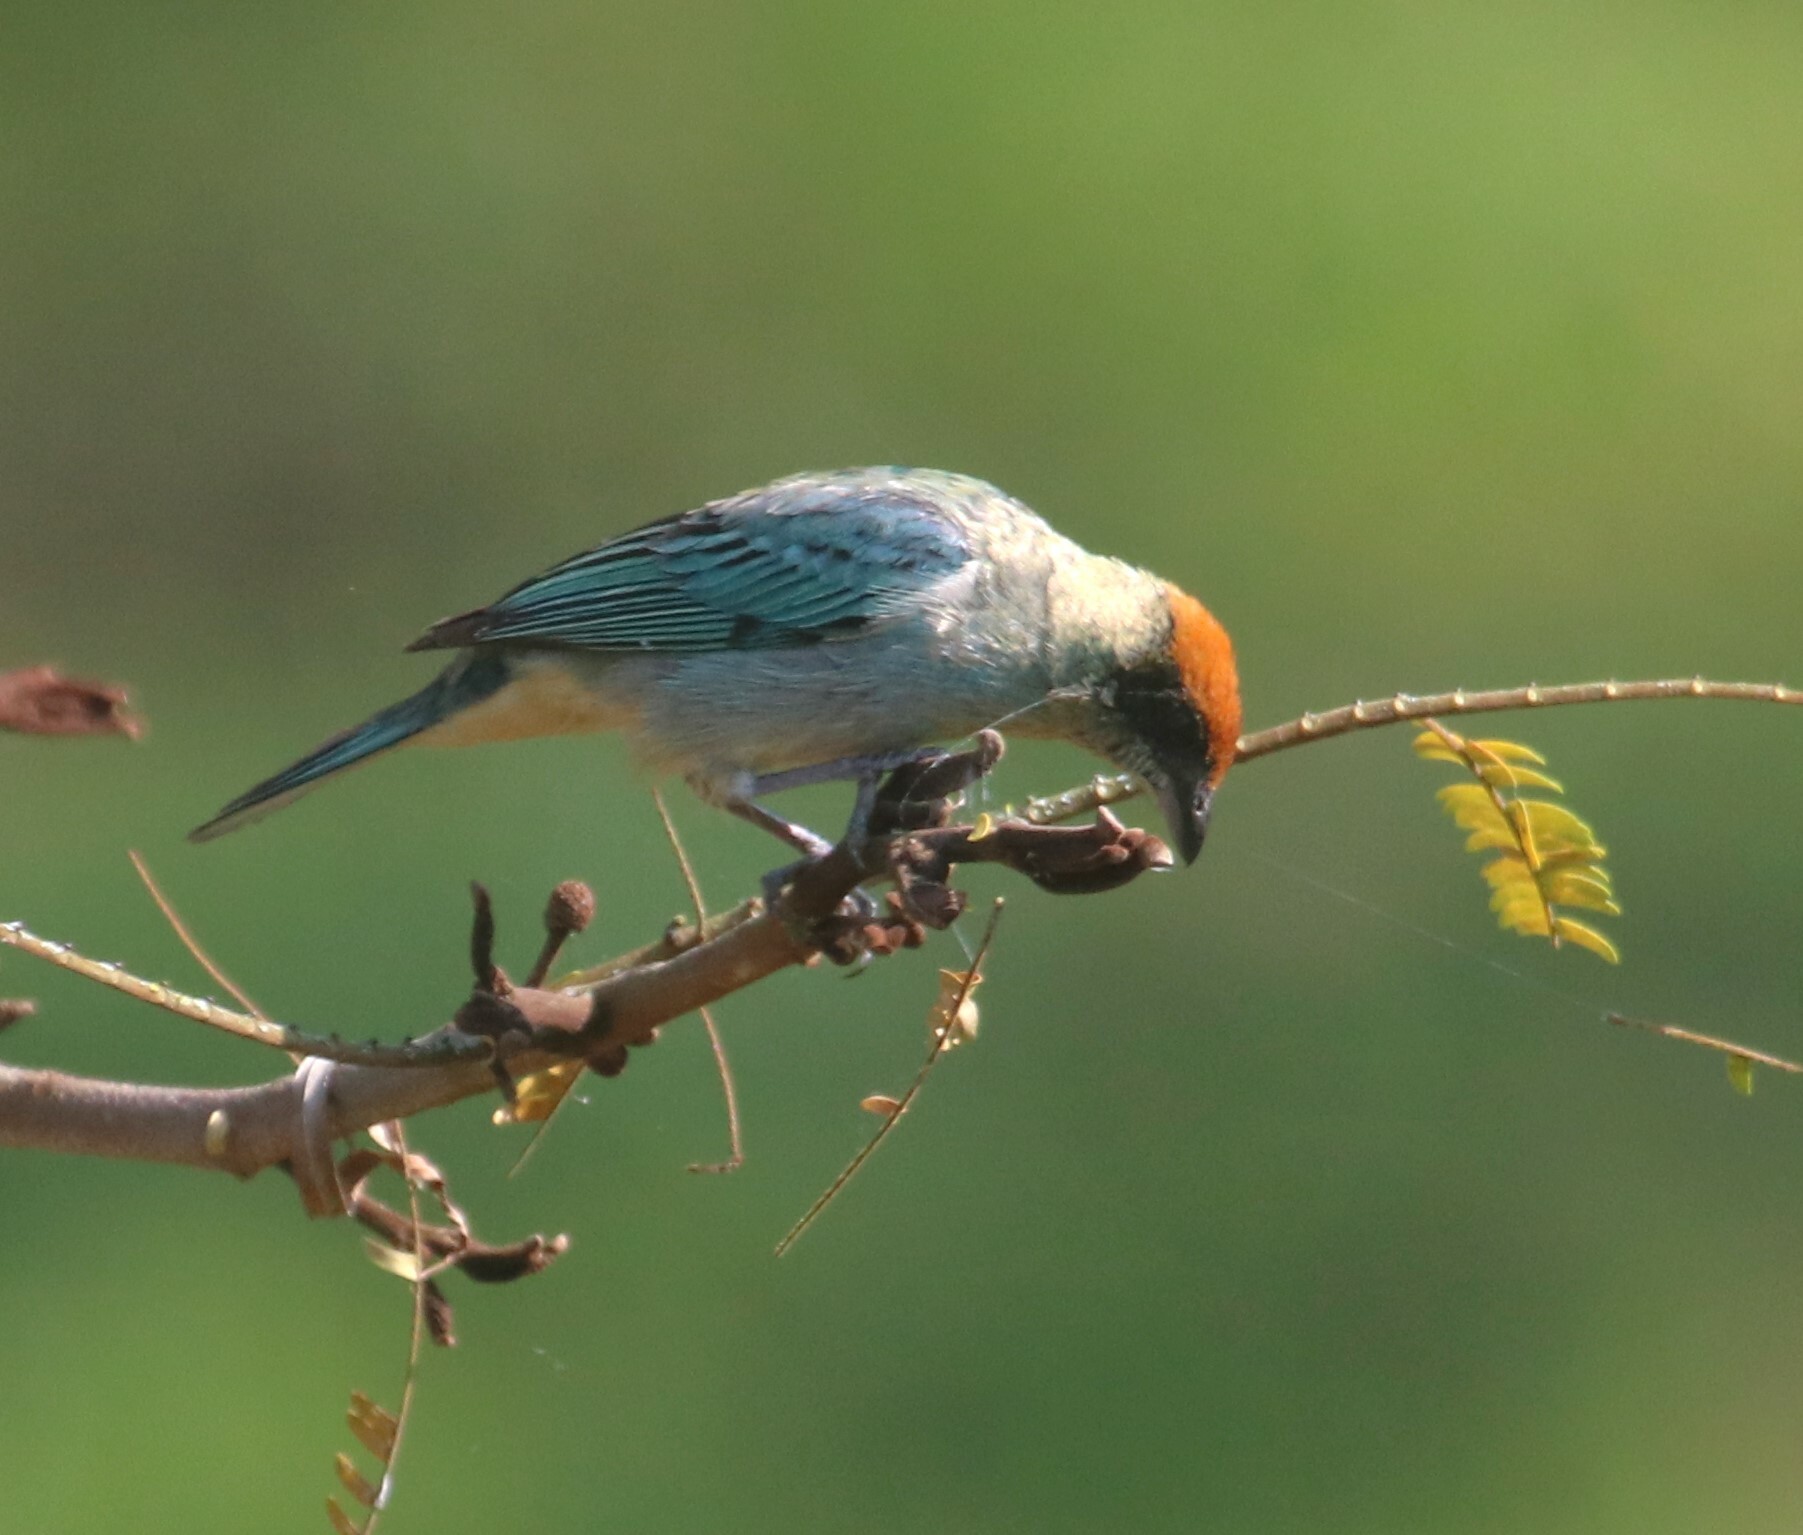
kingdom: Animalia
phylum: Chordata
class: Aves
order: Passeriformes
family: Thraupidae
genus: Stilpnia
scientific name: Stilpnia vitriolina
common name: Scrub tanager
